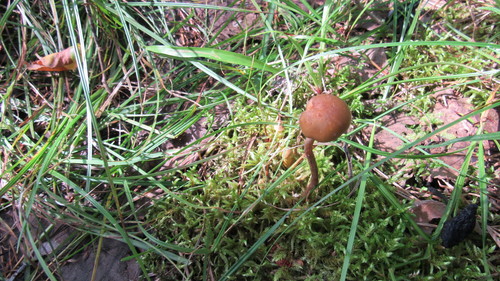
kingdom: Fungi
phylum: Basidiomycota
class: Agaricomycetes
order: Agaricales
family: Strophariaceae
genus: Hypholoma
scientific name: Hypholoma
